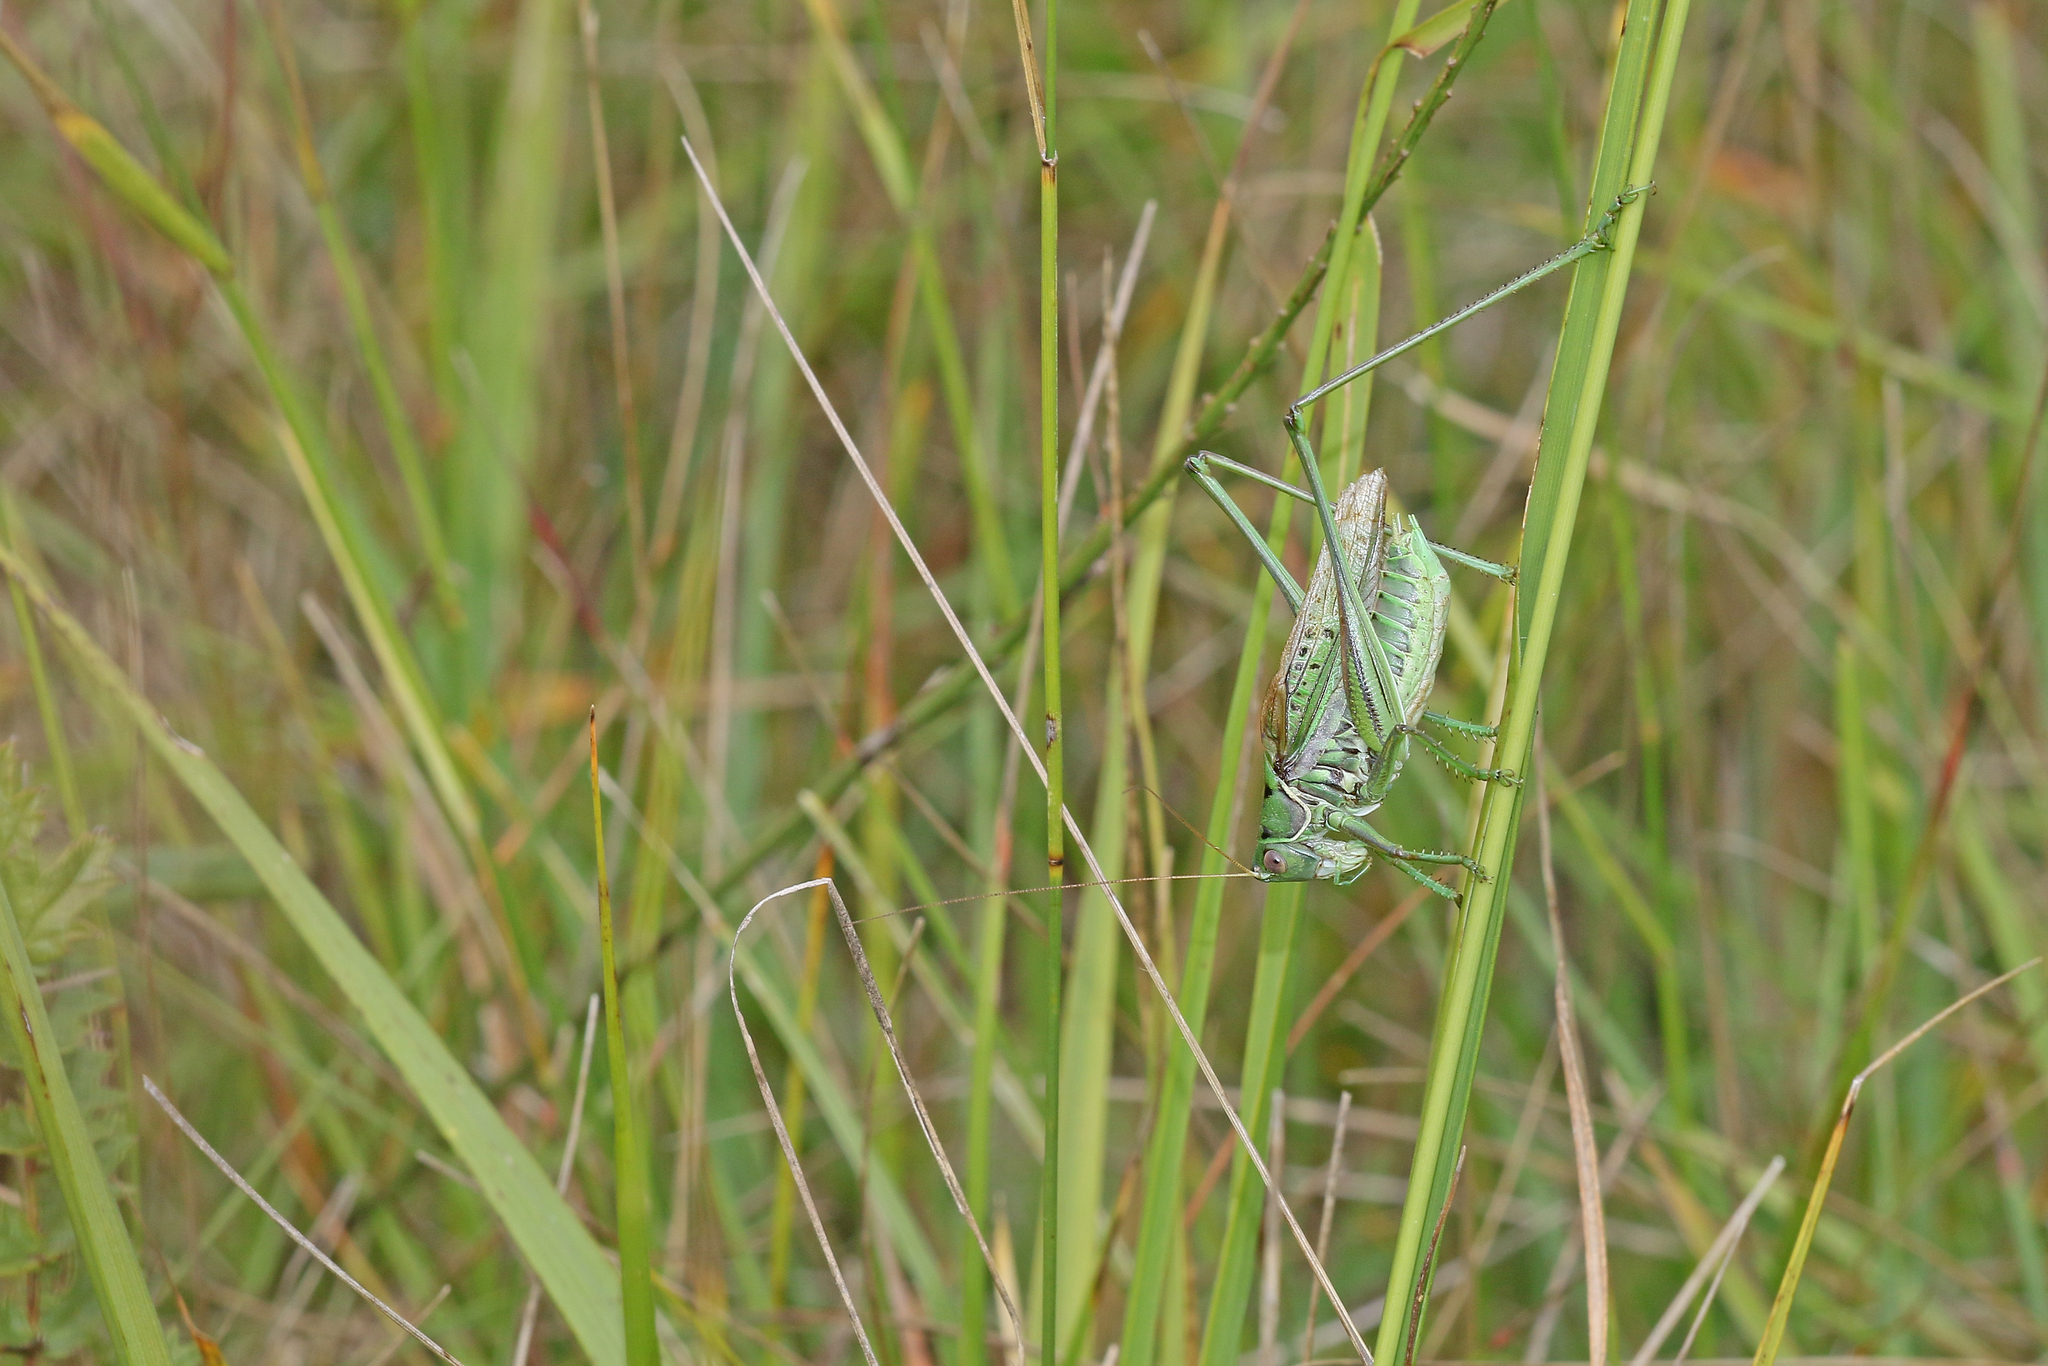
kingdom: Animalia
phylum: Arthropoda
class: Insecta
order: Orthoptera
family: Tettigoniidae
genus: Gampsocleis
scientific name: Gampsocleis glabra
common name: Heath bushcricket
